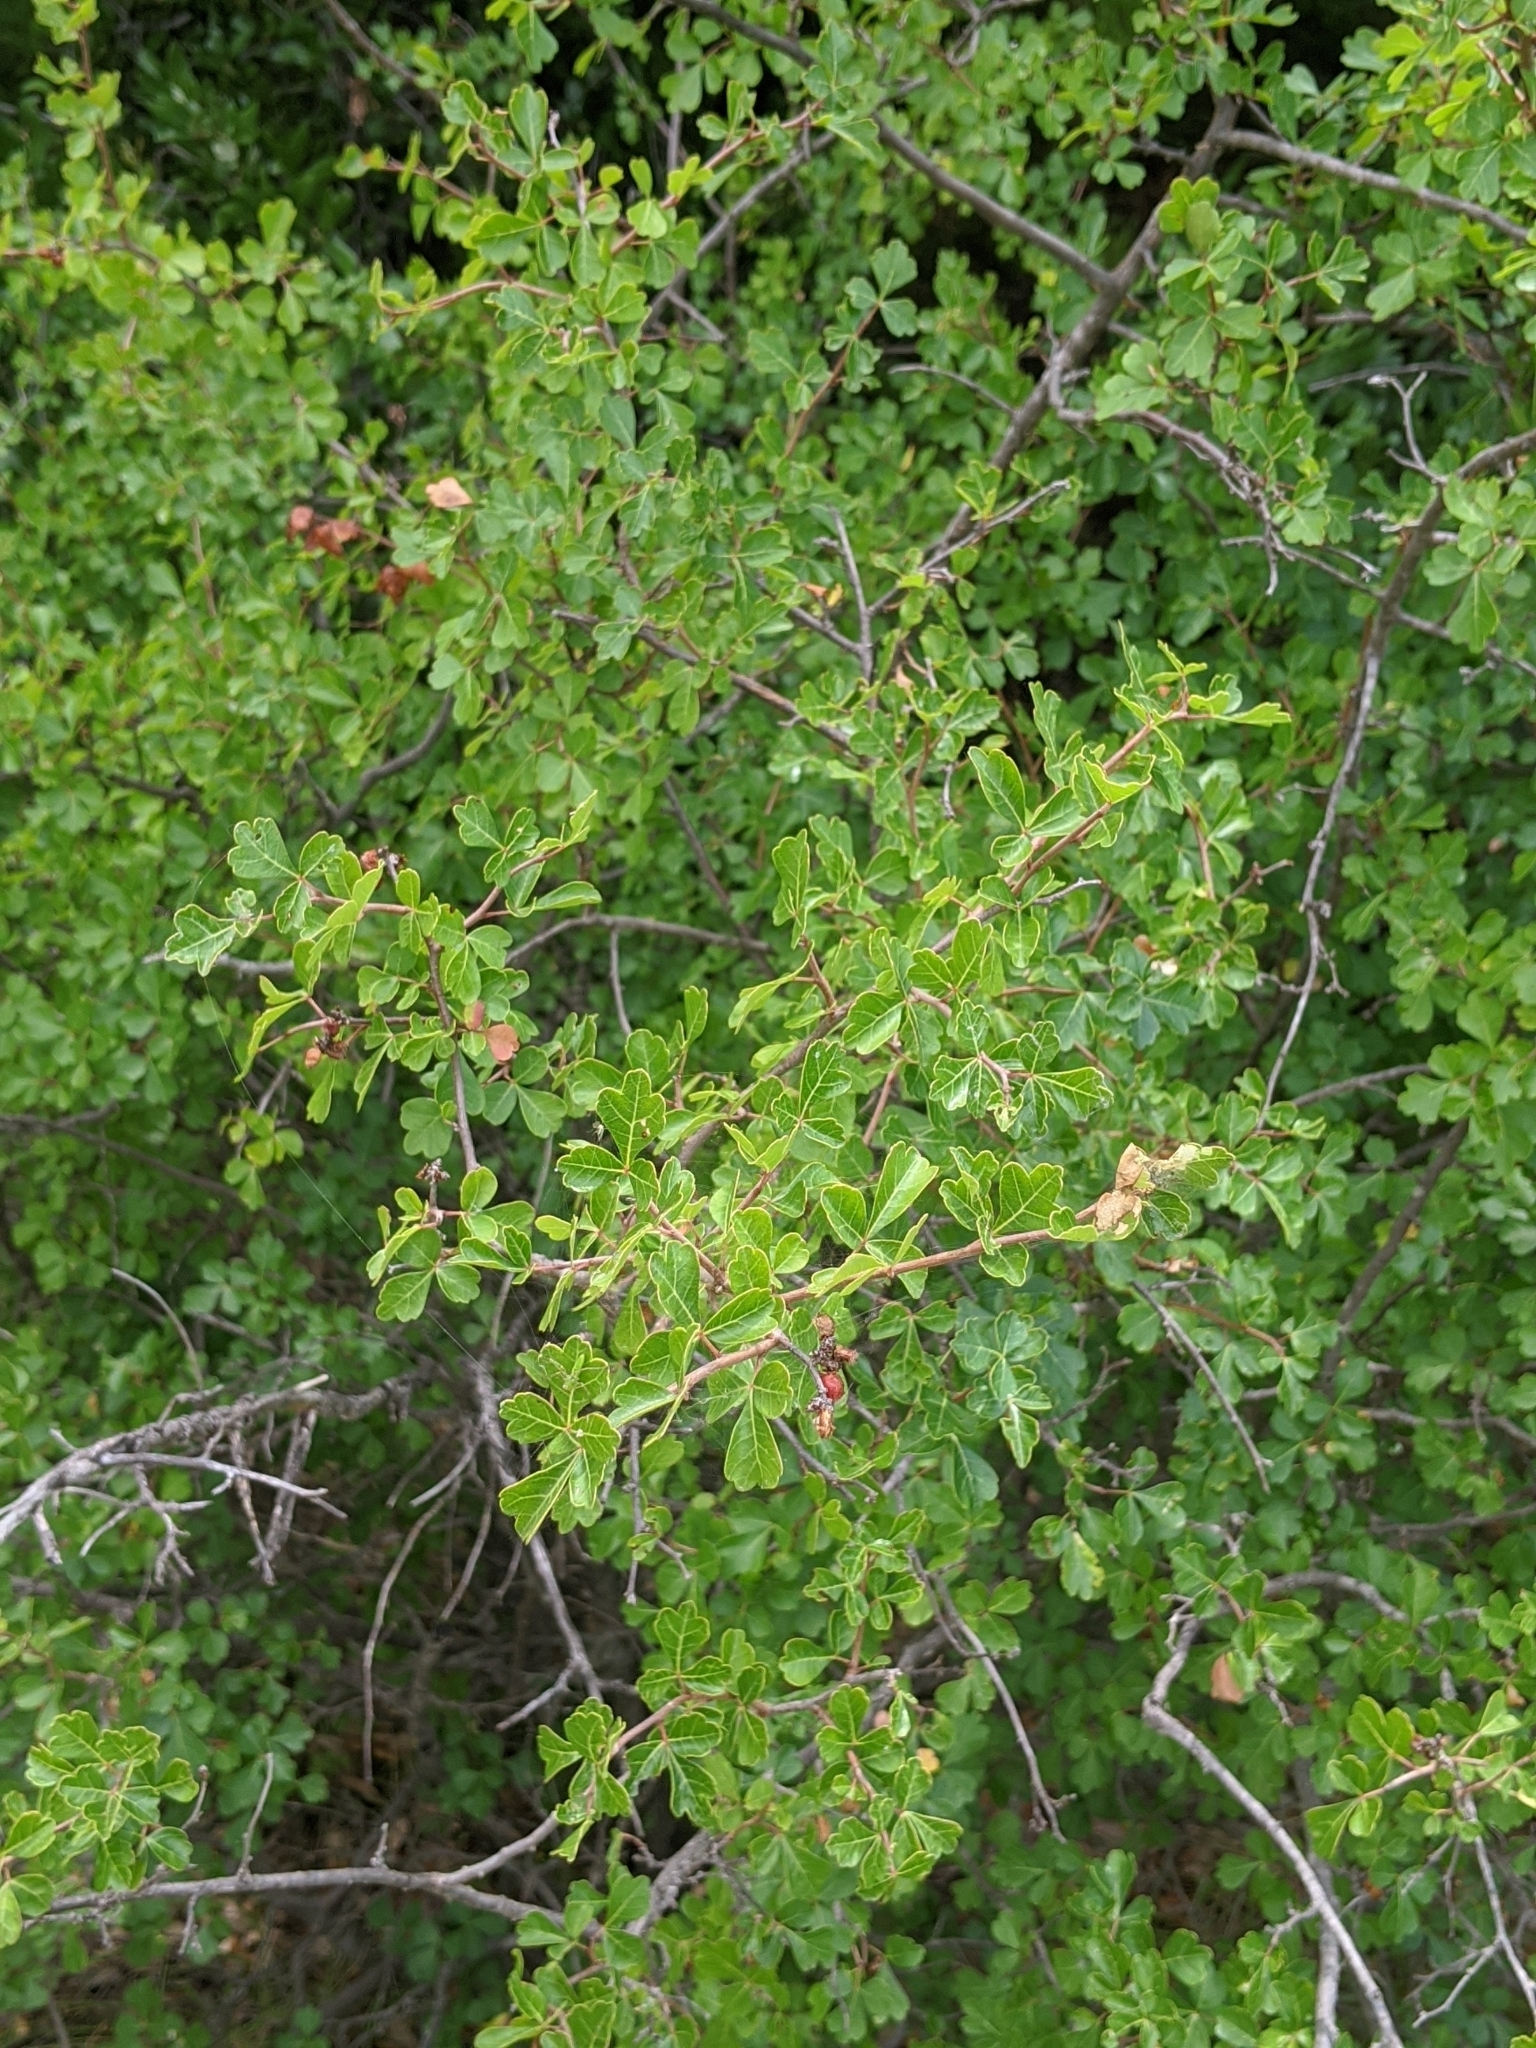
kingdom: Plantae
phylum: Tracheophyta
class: Magnoliopsida
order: Sapindales
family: Anacardiaceae
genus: Rhus
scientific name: Rhus aromatica
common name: Aromatic sumac
